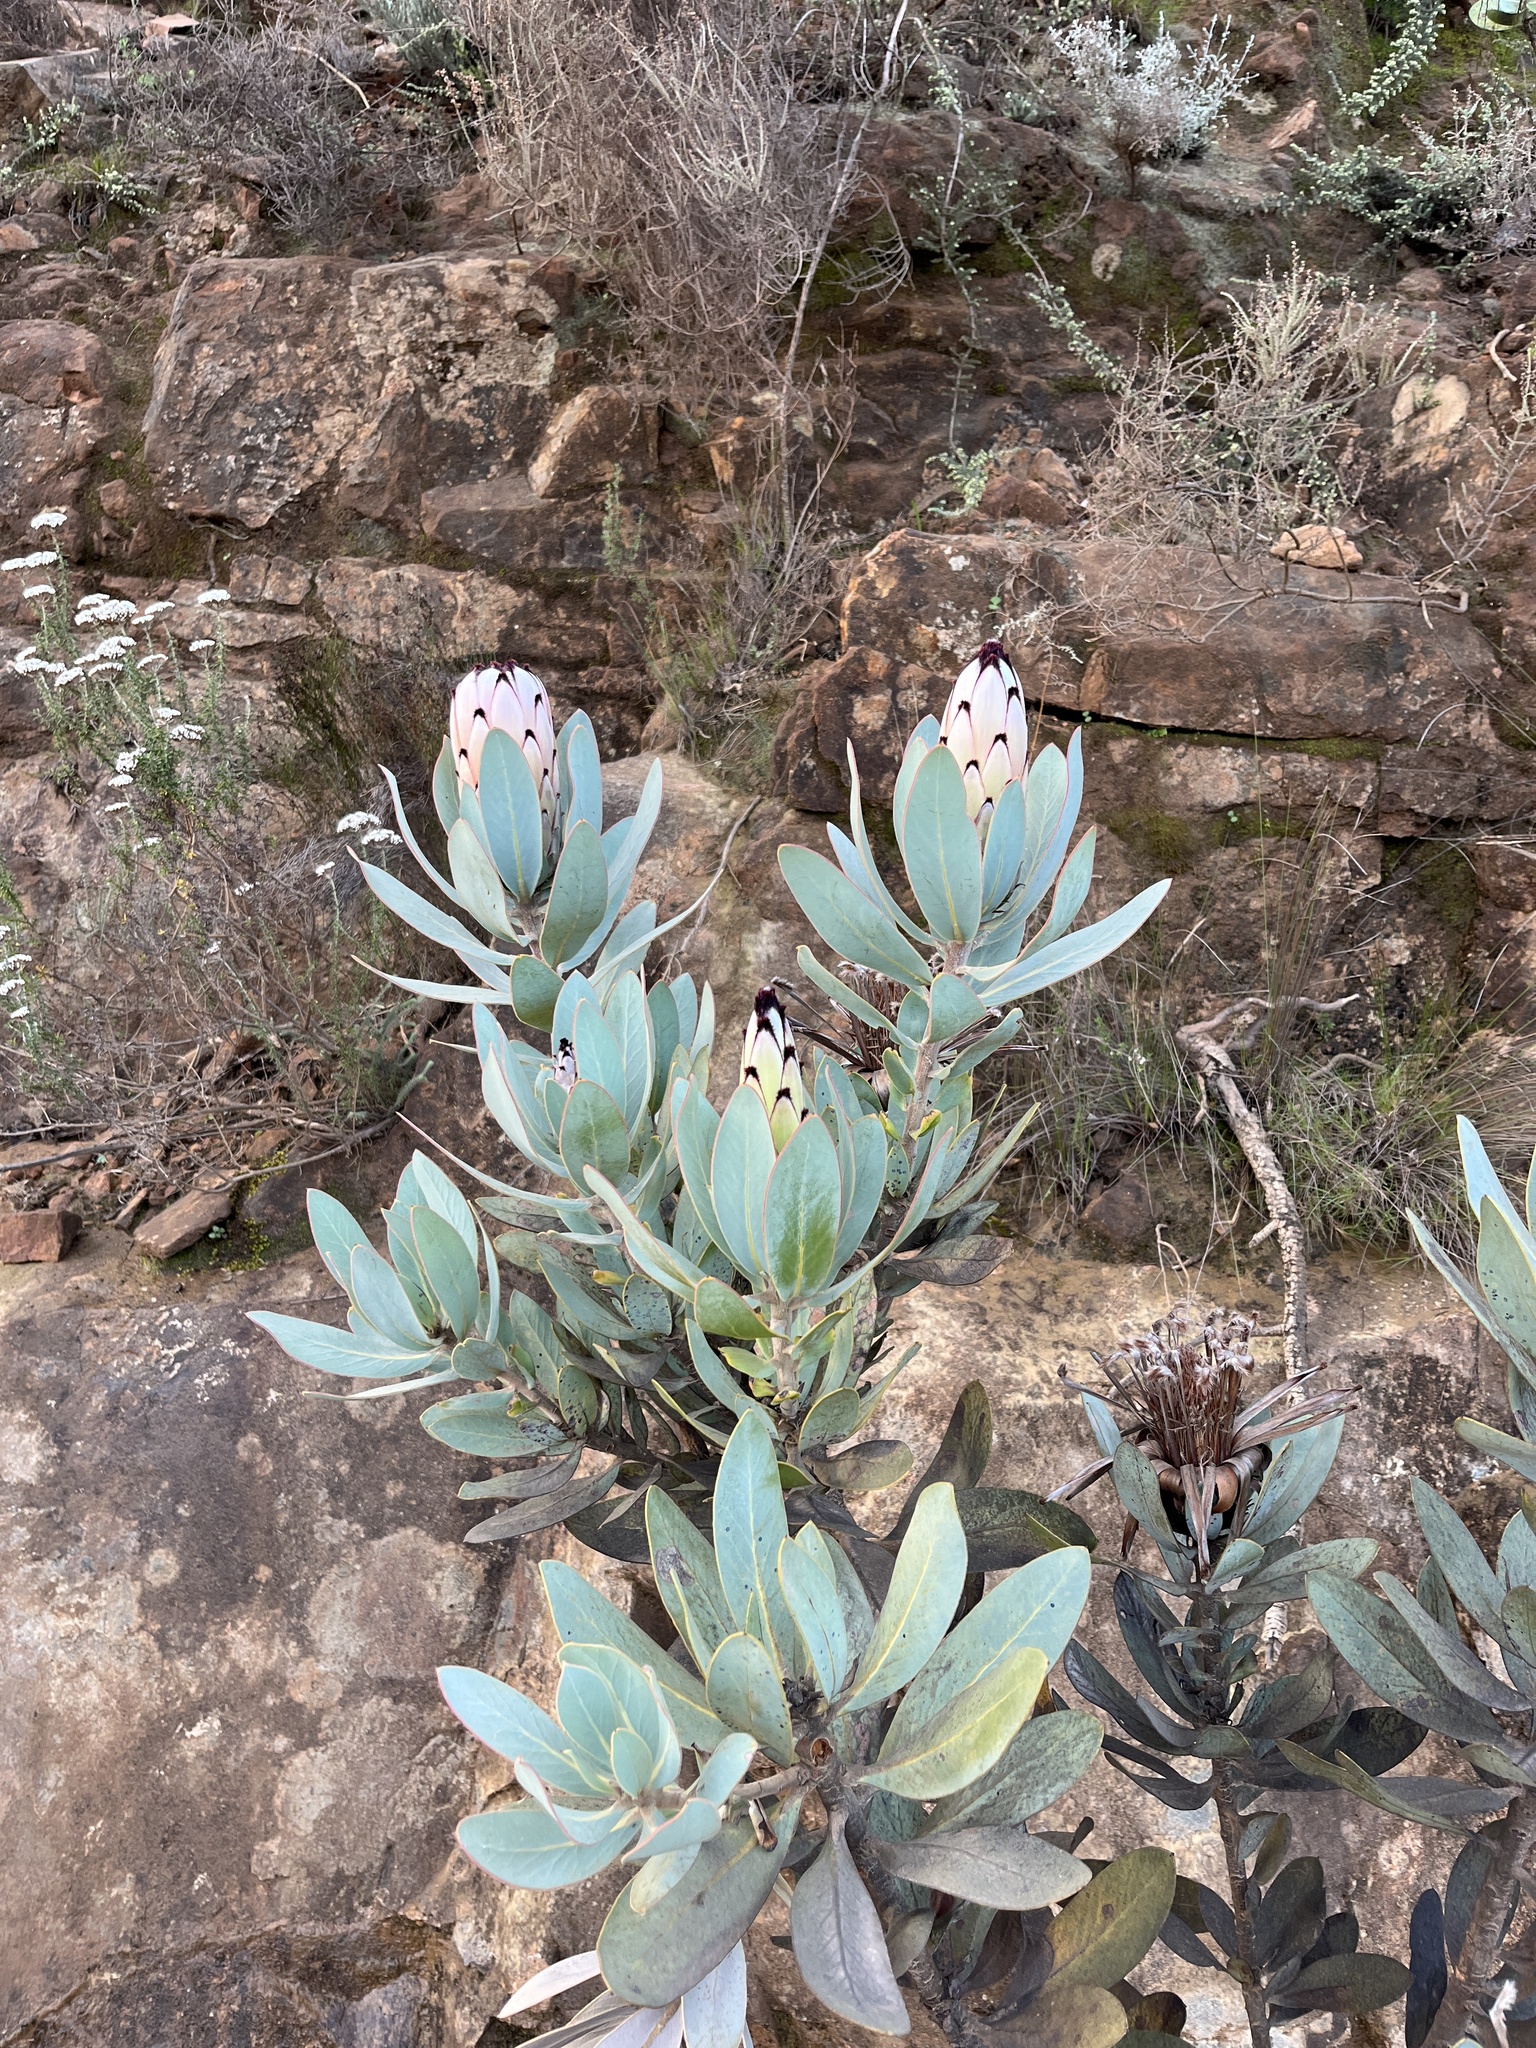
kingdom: Plantae
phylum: Tracheophyta
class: Magnoliopsida
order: Proteales
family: Proteaceae
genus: Protea
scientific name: Protea laurifolia
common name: Grey-leaf sugarbsh
